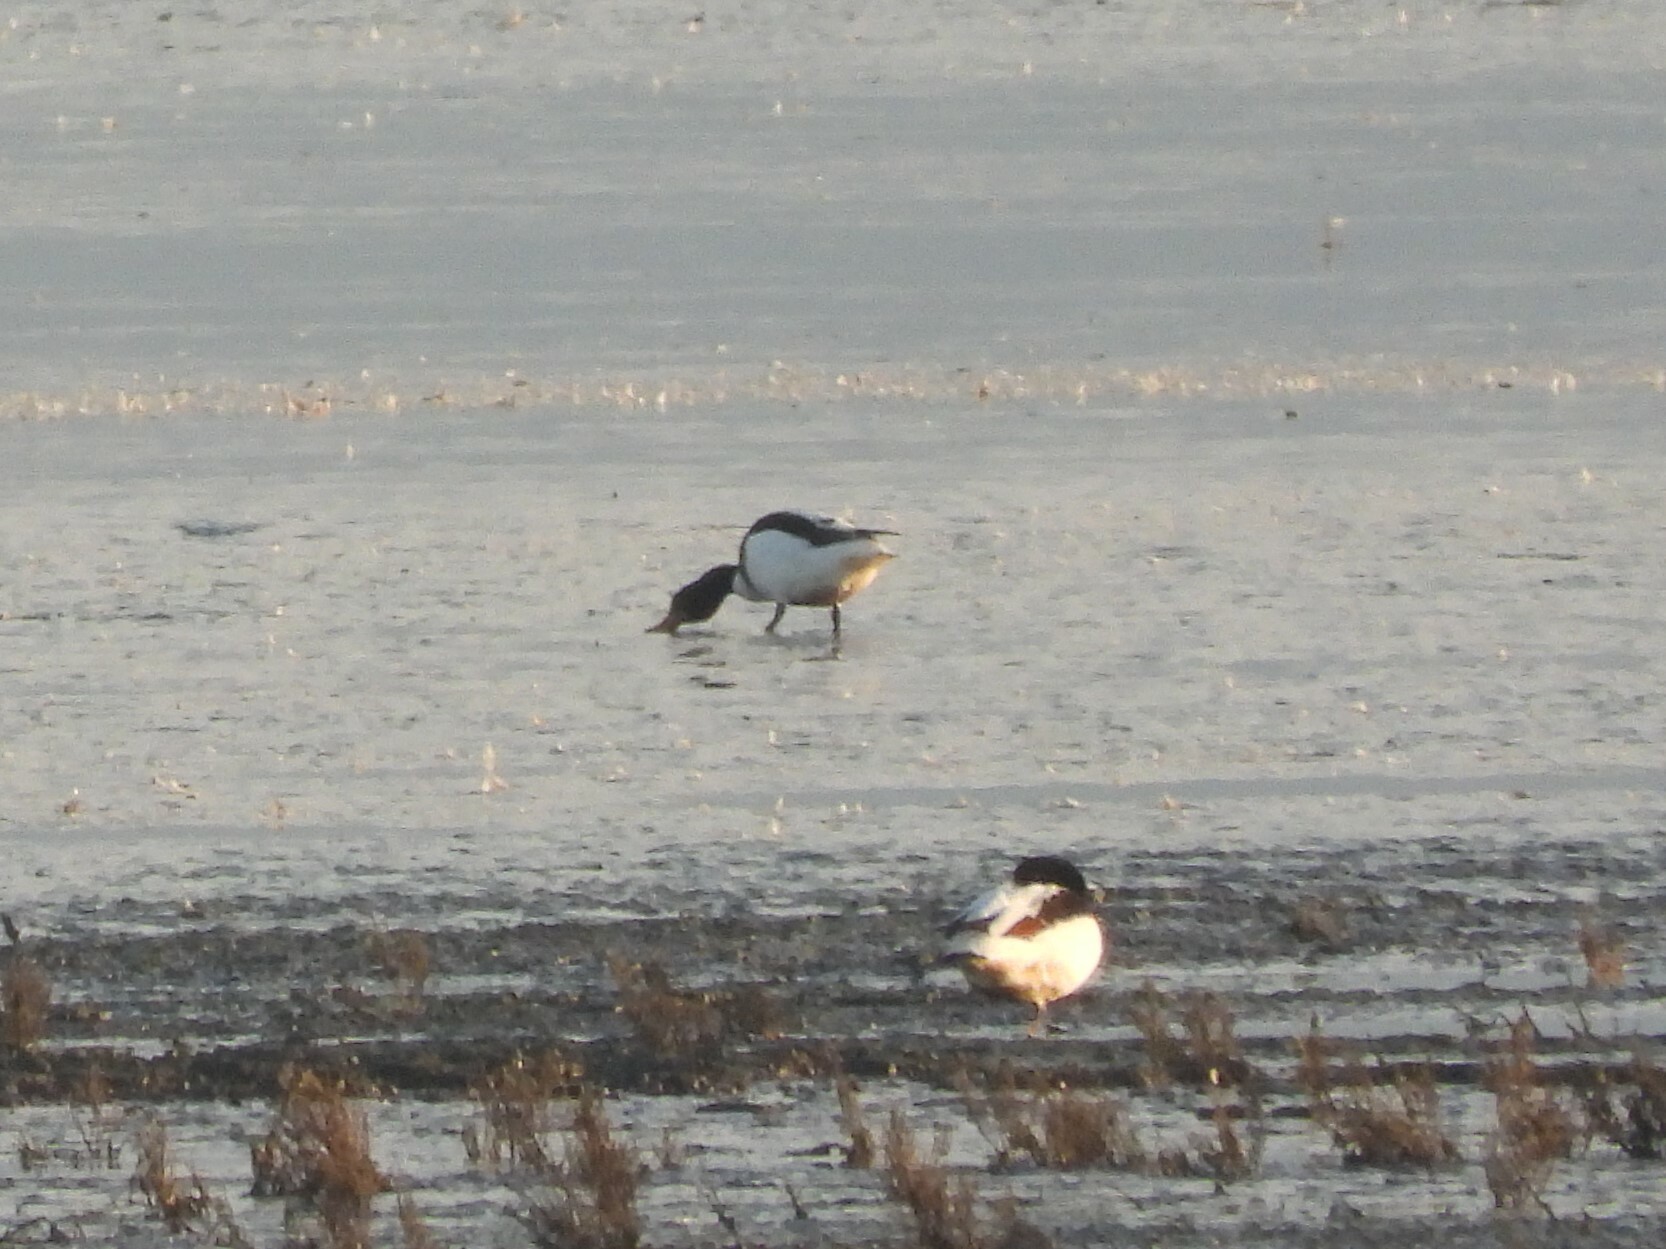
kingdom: Animalia
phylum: Chordata
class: Aves
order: Anseriformes
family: Anatidae
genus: Tadorna
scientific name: Tadorna tadorna
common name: Common shelduck
